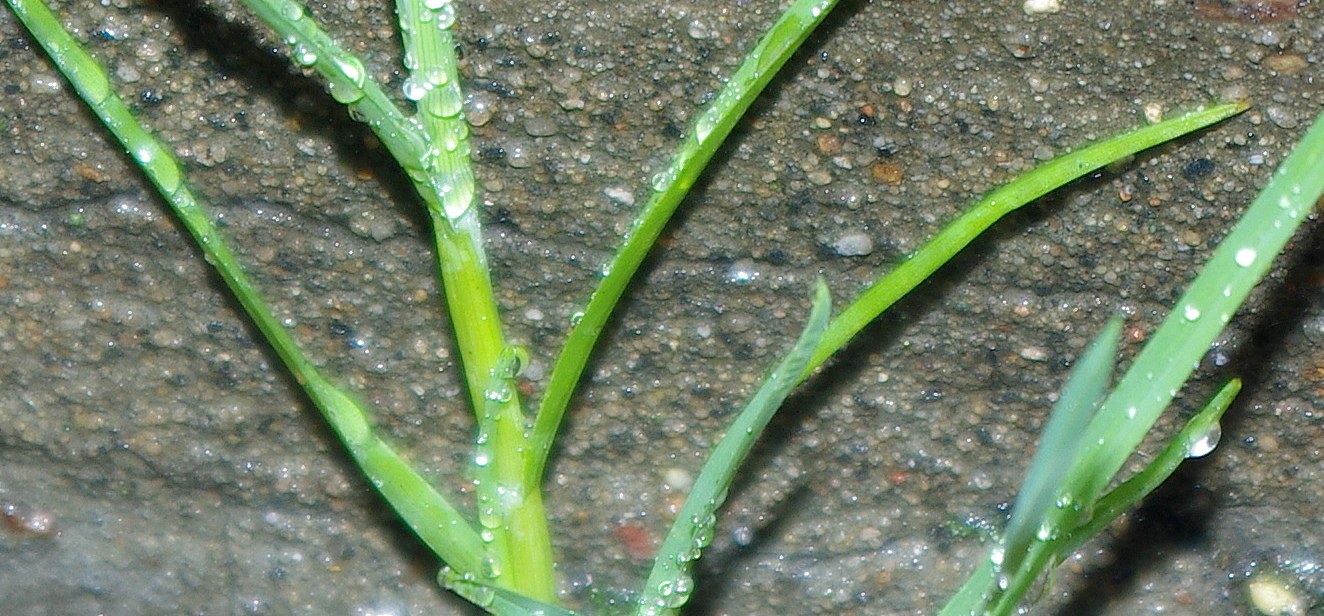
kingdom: Plantae
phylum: Tracheophyta
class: Liliopsida
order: Poales
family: Poaceae
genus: Poa
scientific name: Poa annua
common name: Annual bluegrass
